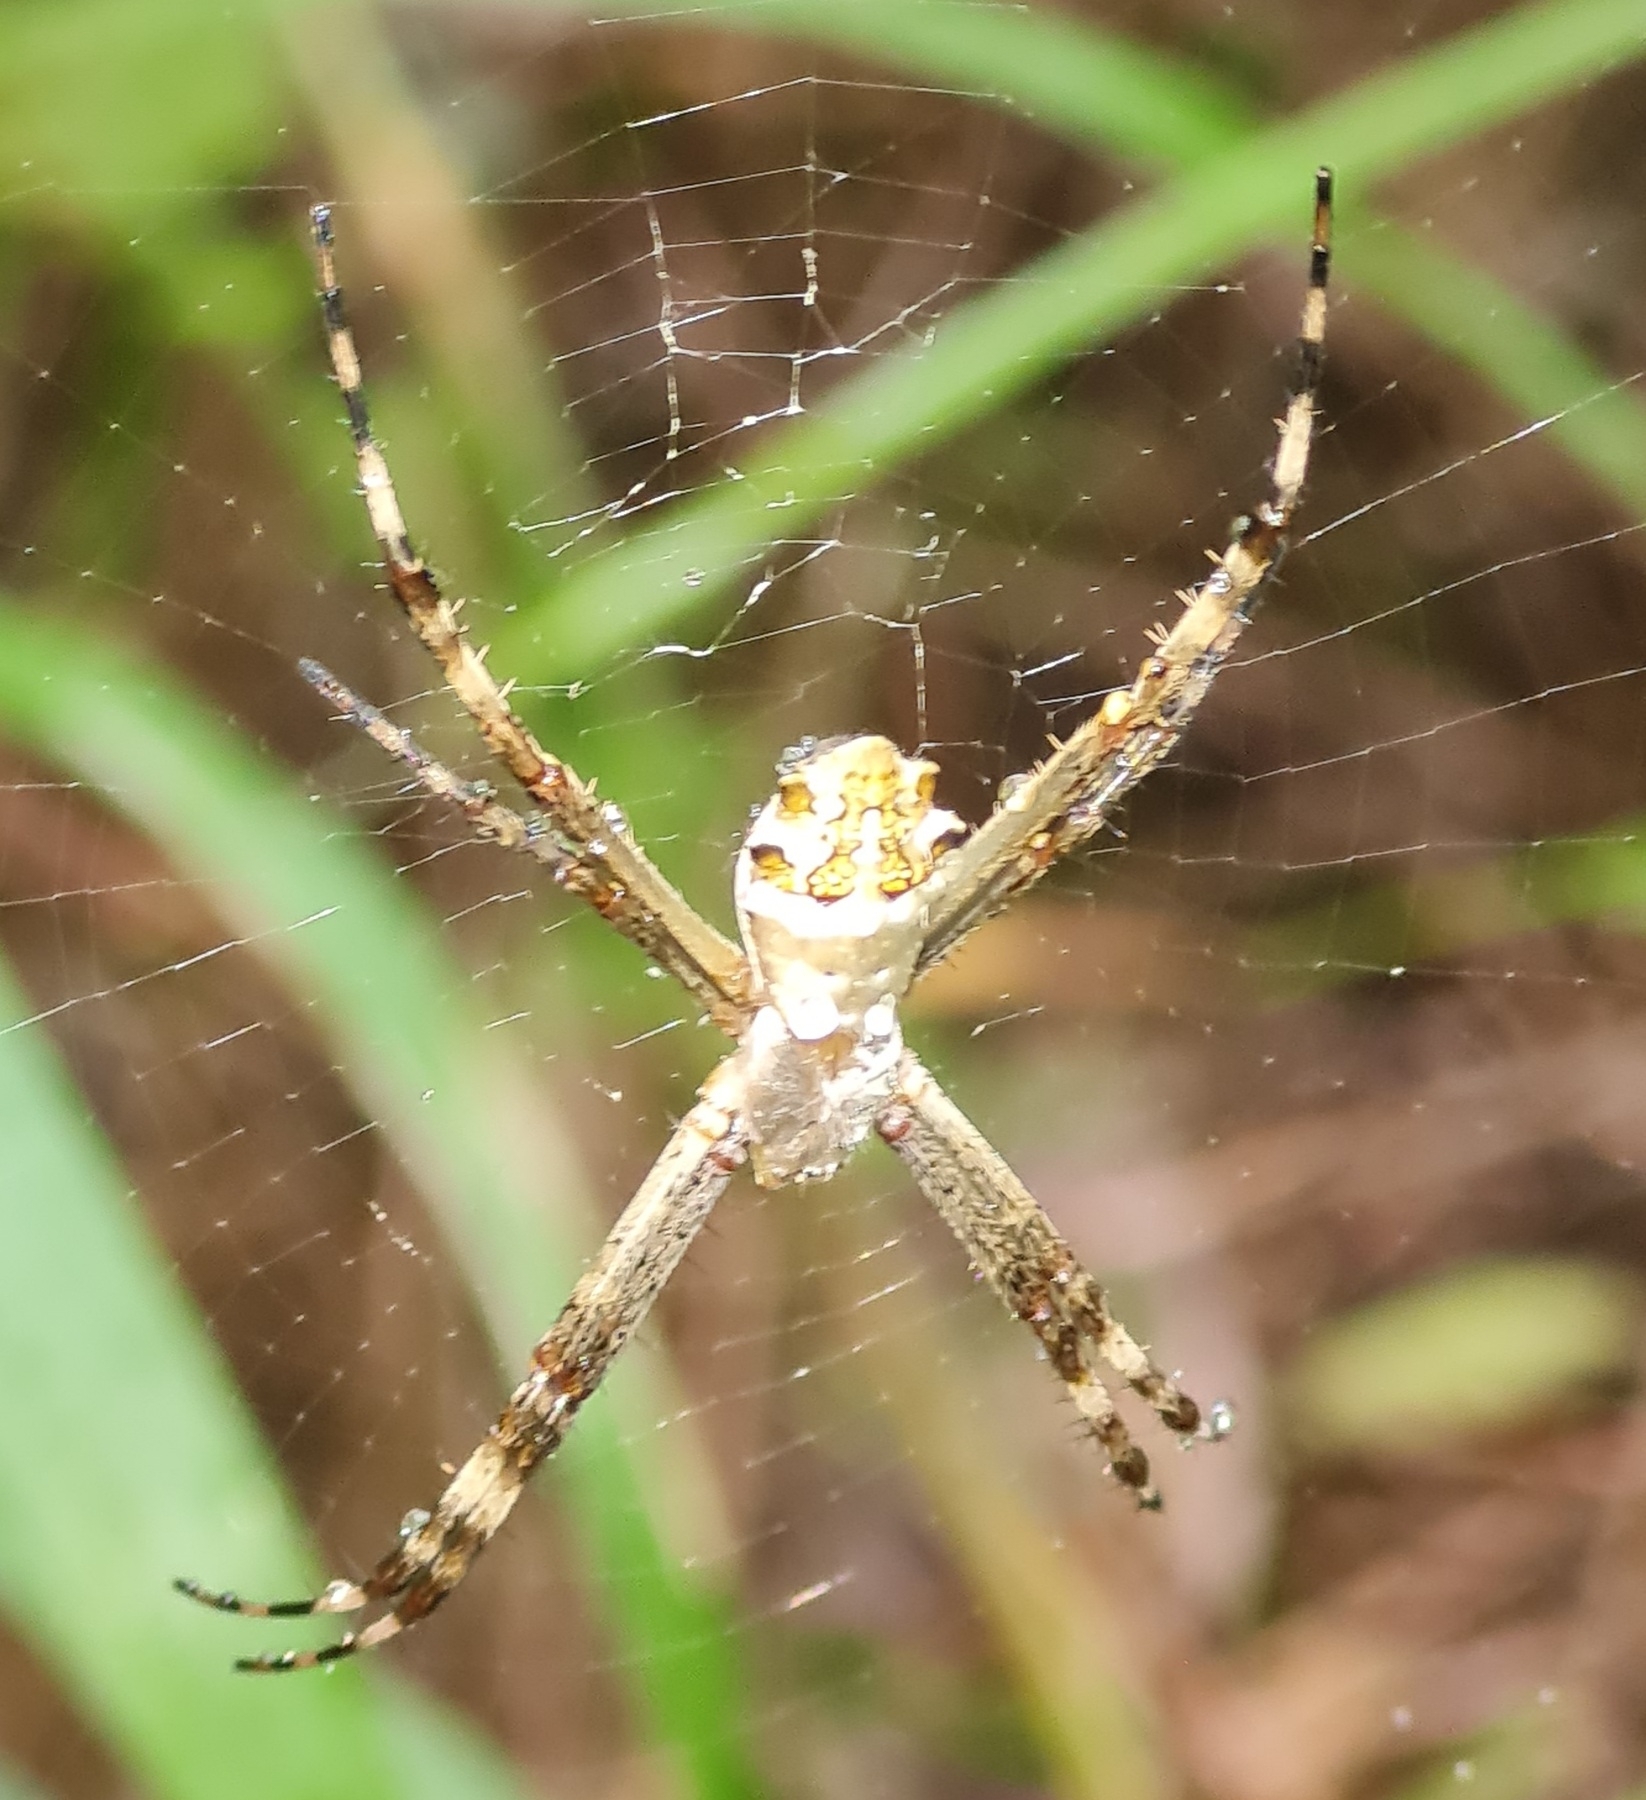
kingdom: Animalia
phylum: Arthropoda
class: Arachnida
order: Araneae
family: Araneidae
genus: Argiope
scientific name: Argiope argentata
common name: Orb weavers
